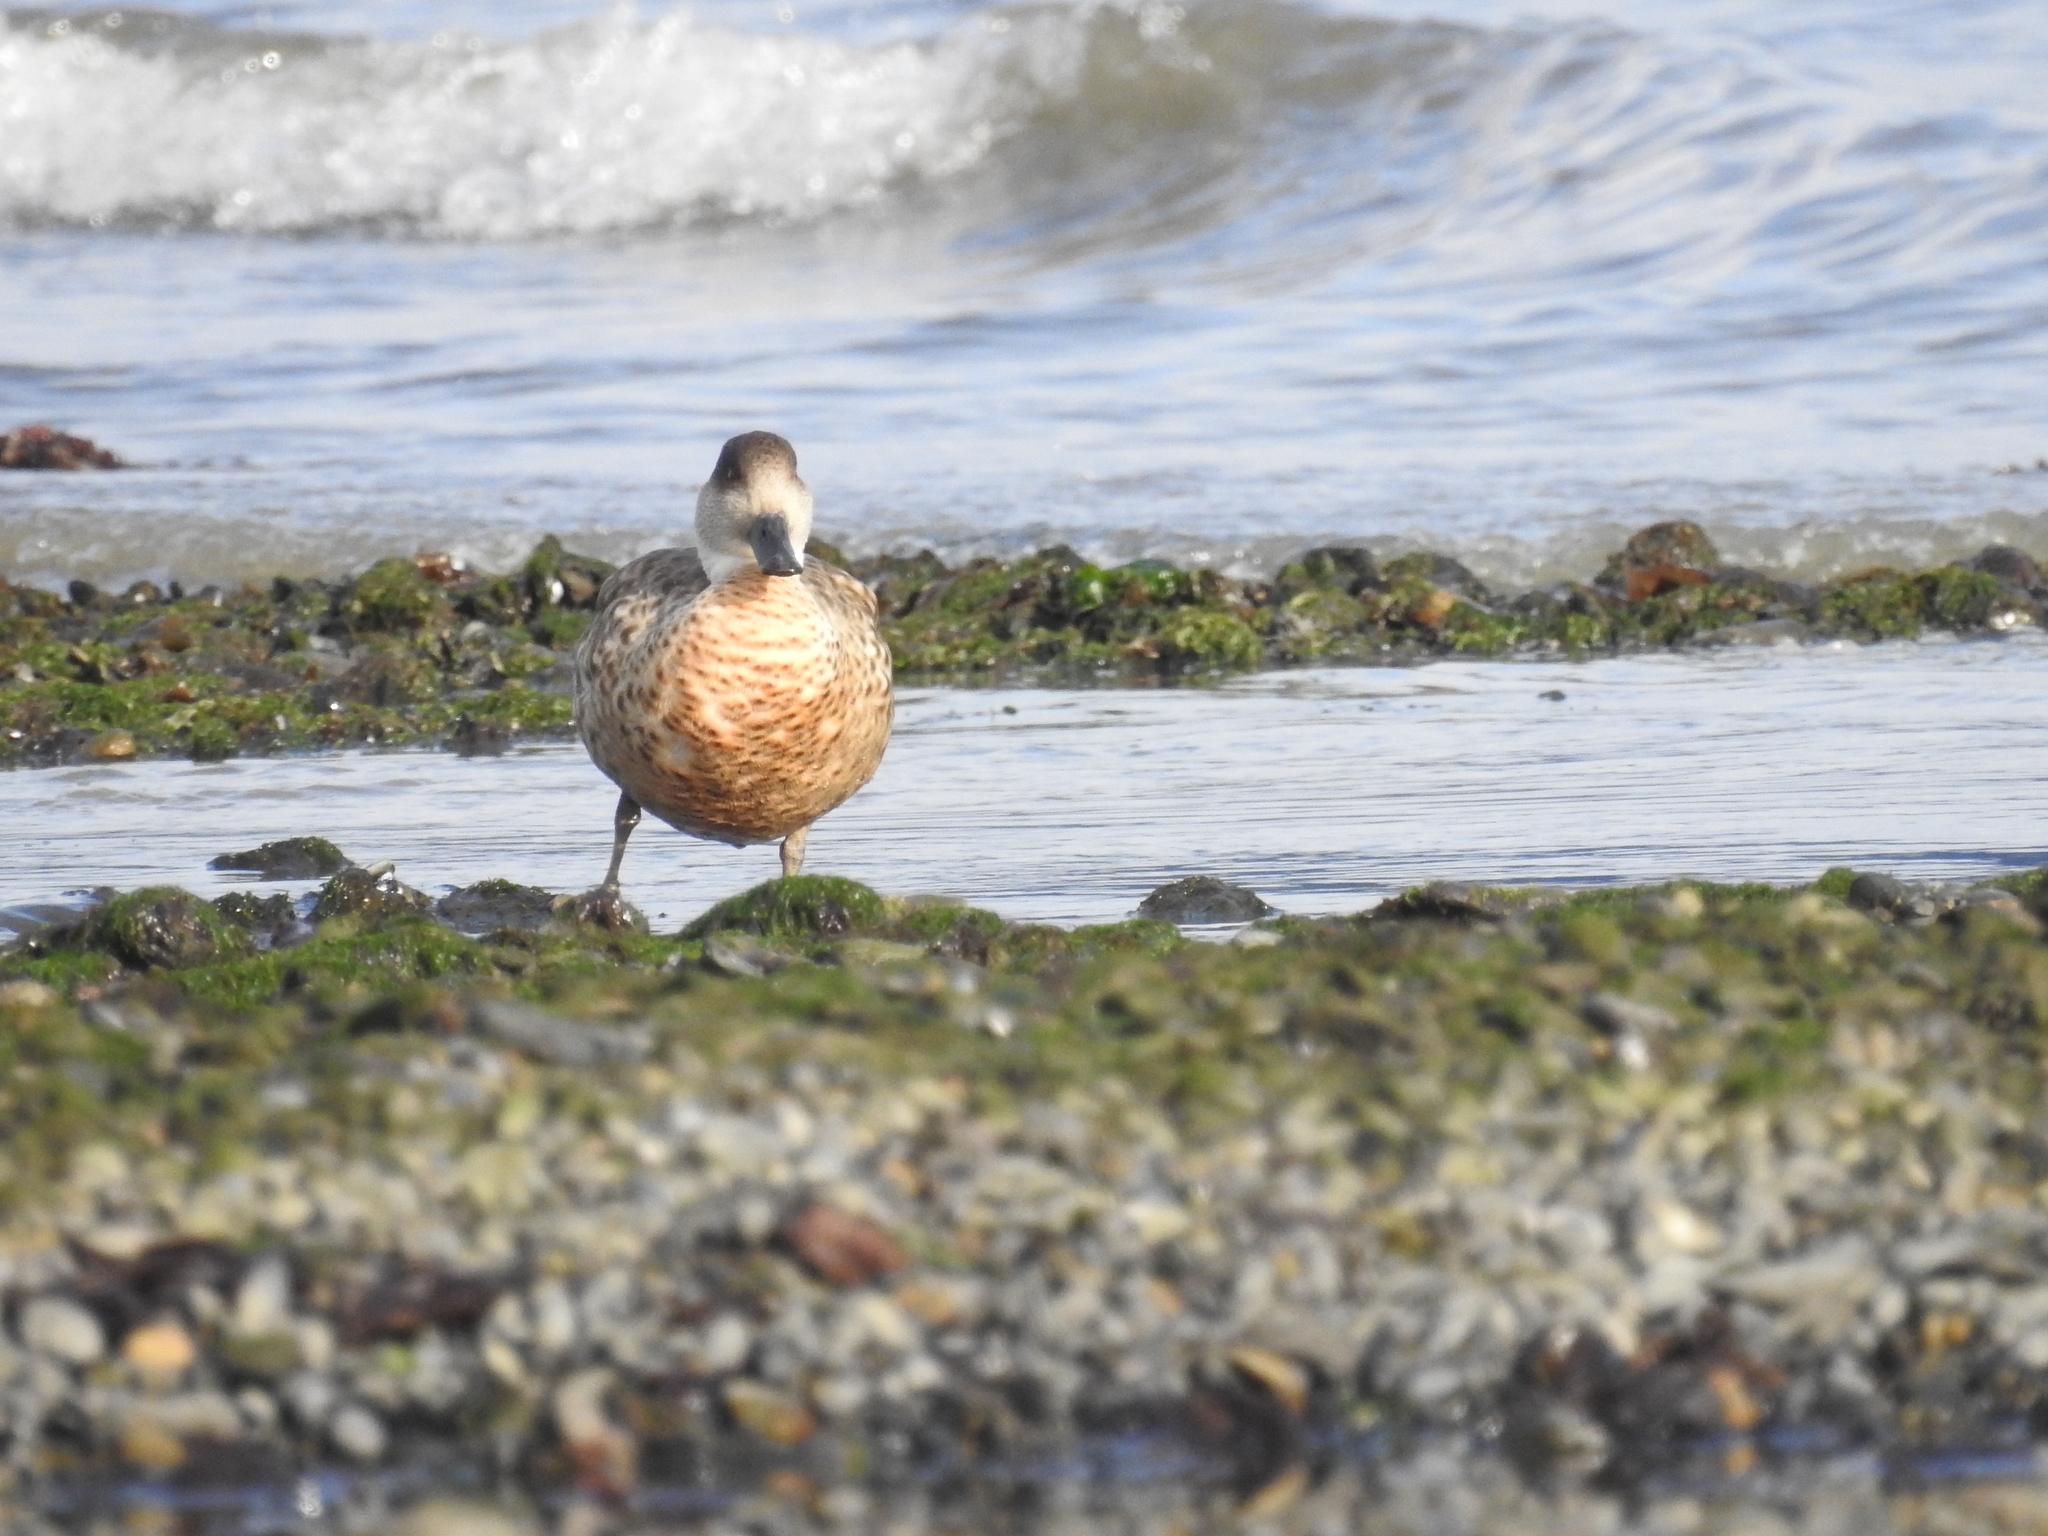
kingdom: Animalia
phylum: Chordata
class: Aves
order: Anseriformes
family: Anatidae
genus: Lophonetta
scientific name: Lophonetta specularioides
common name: Crested duck
